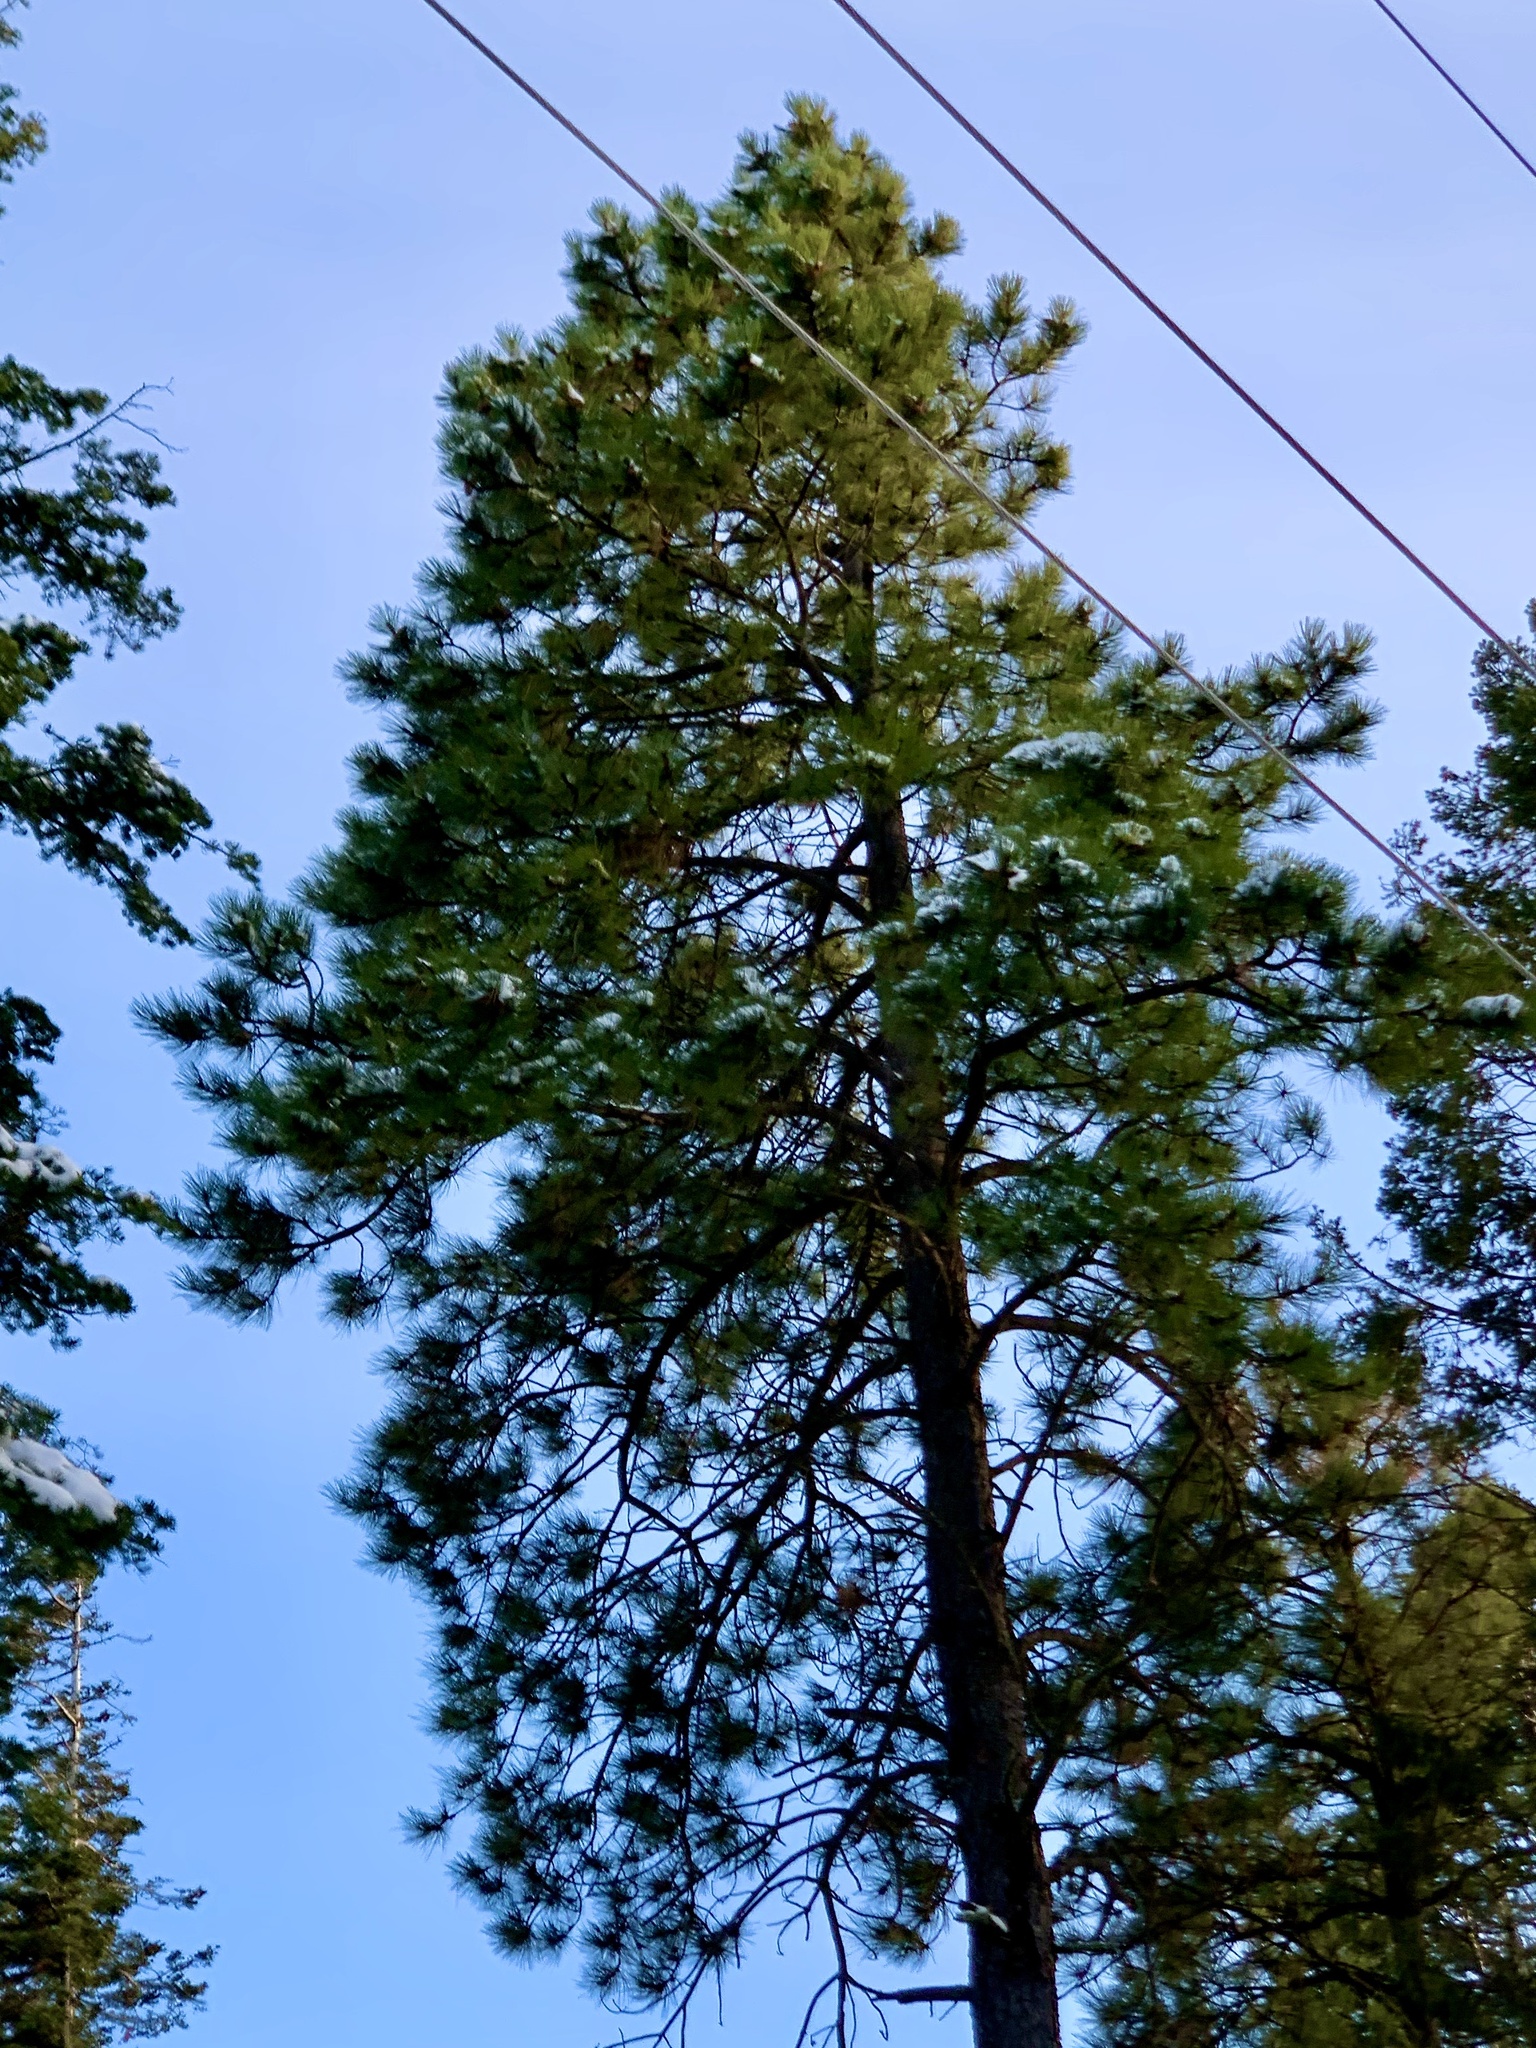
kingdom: Plantae
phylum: Tracheophyta
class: Pinopsida
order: Pinales
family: Pinaceae
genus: Pinus
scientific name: Pinus ponderosa
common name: Western yellow-pine
